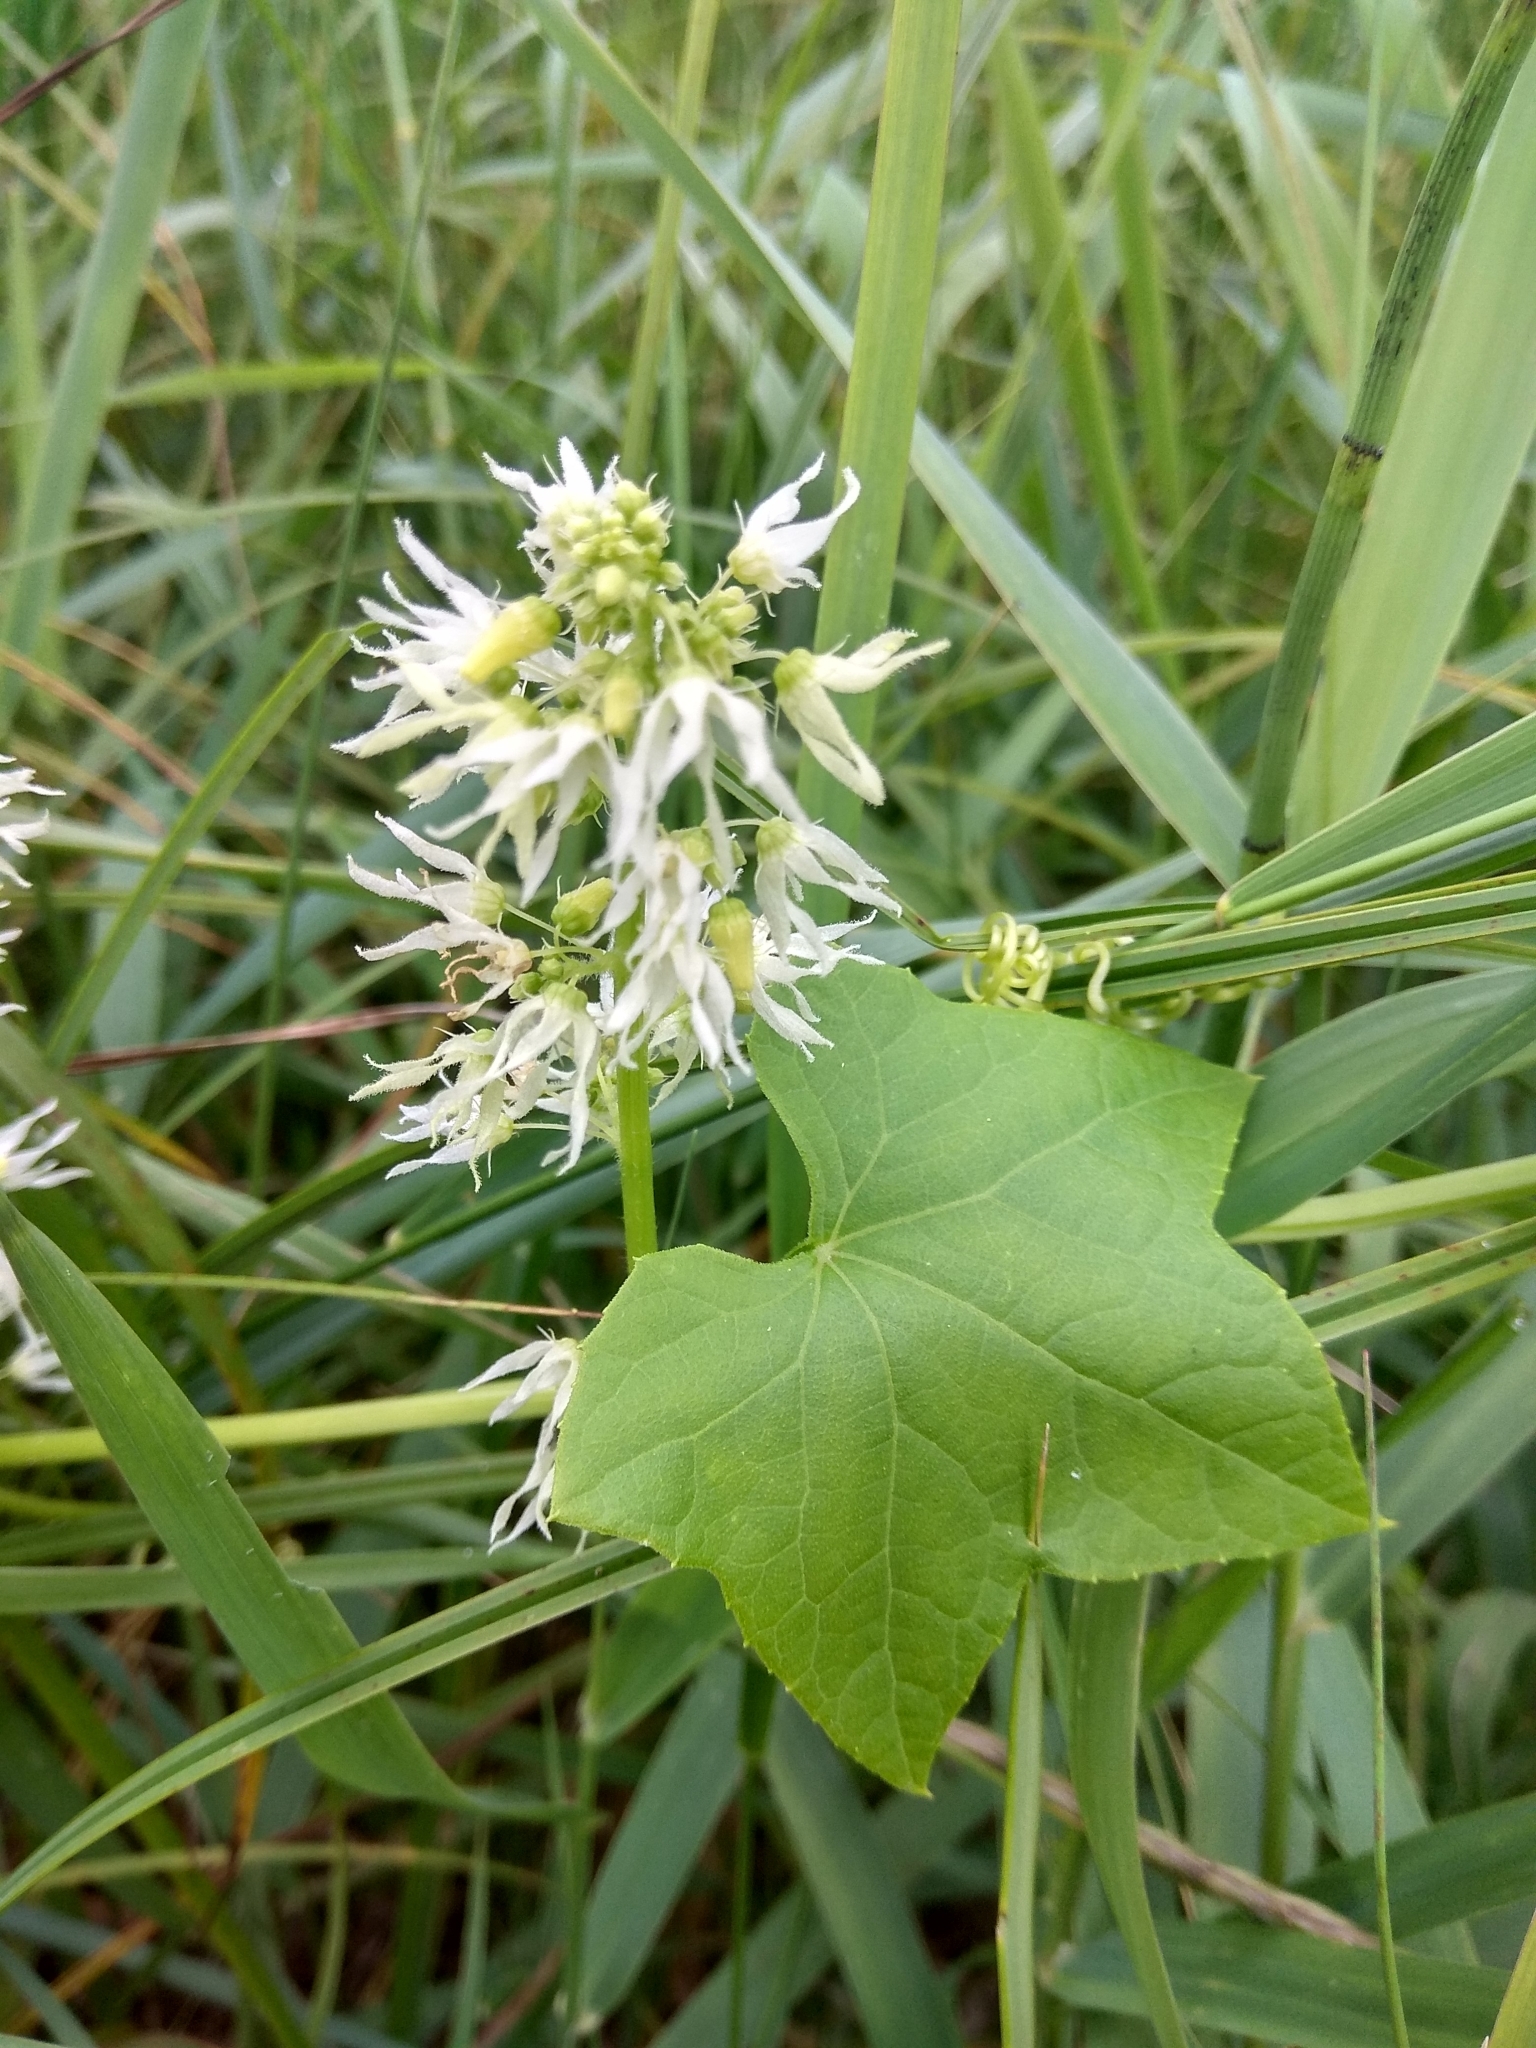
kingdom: Plantae
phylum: Tracheophyta
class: Magnoliopsida
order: Cucurbitales
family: Cucurbitaceae
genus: Echinocystis
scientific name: Echinocystis lobata
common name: Wild cucumber
